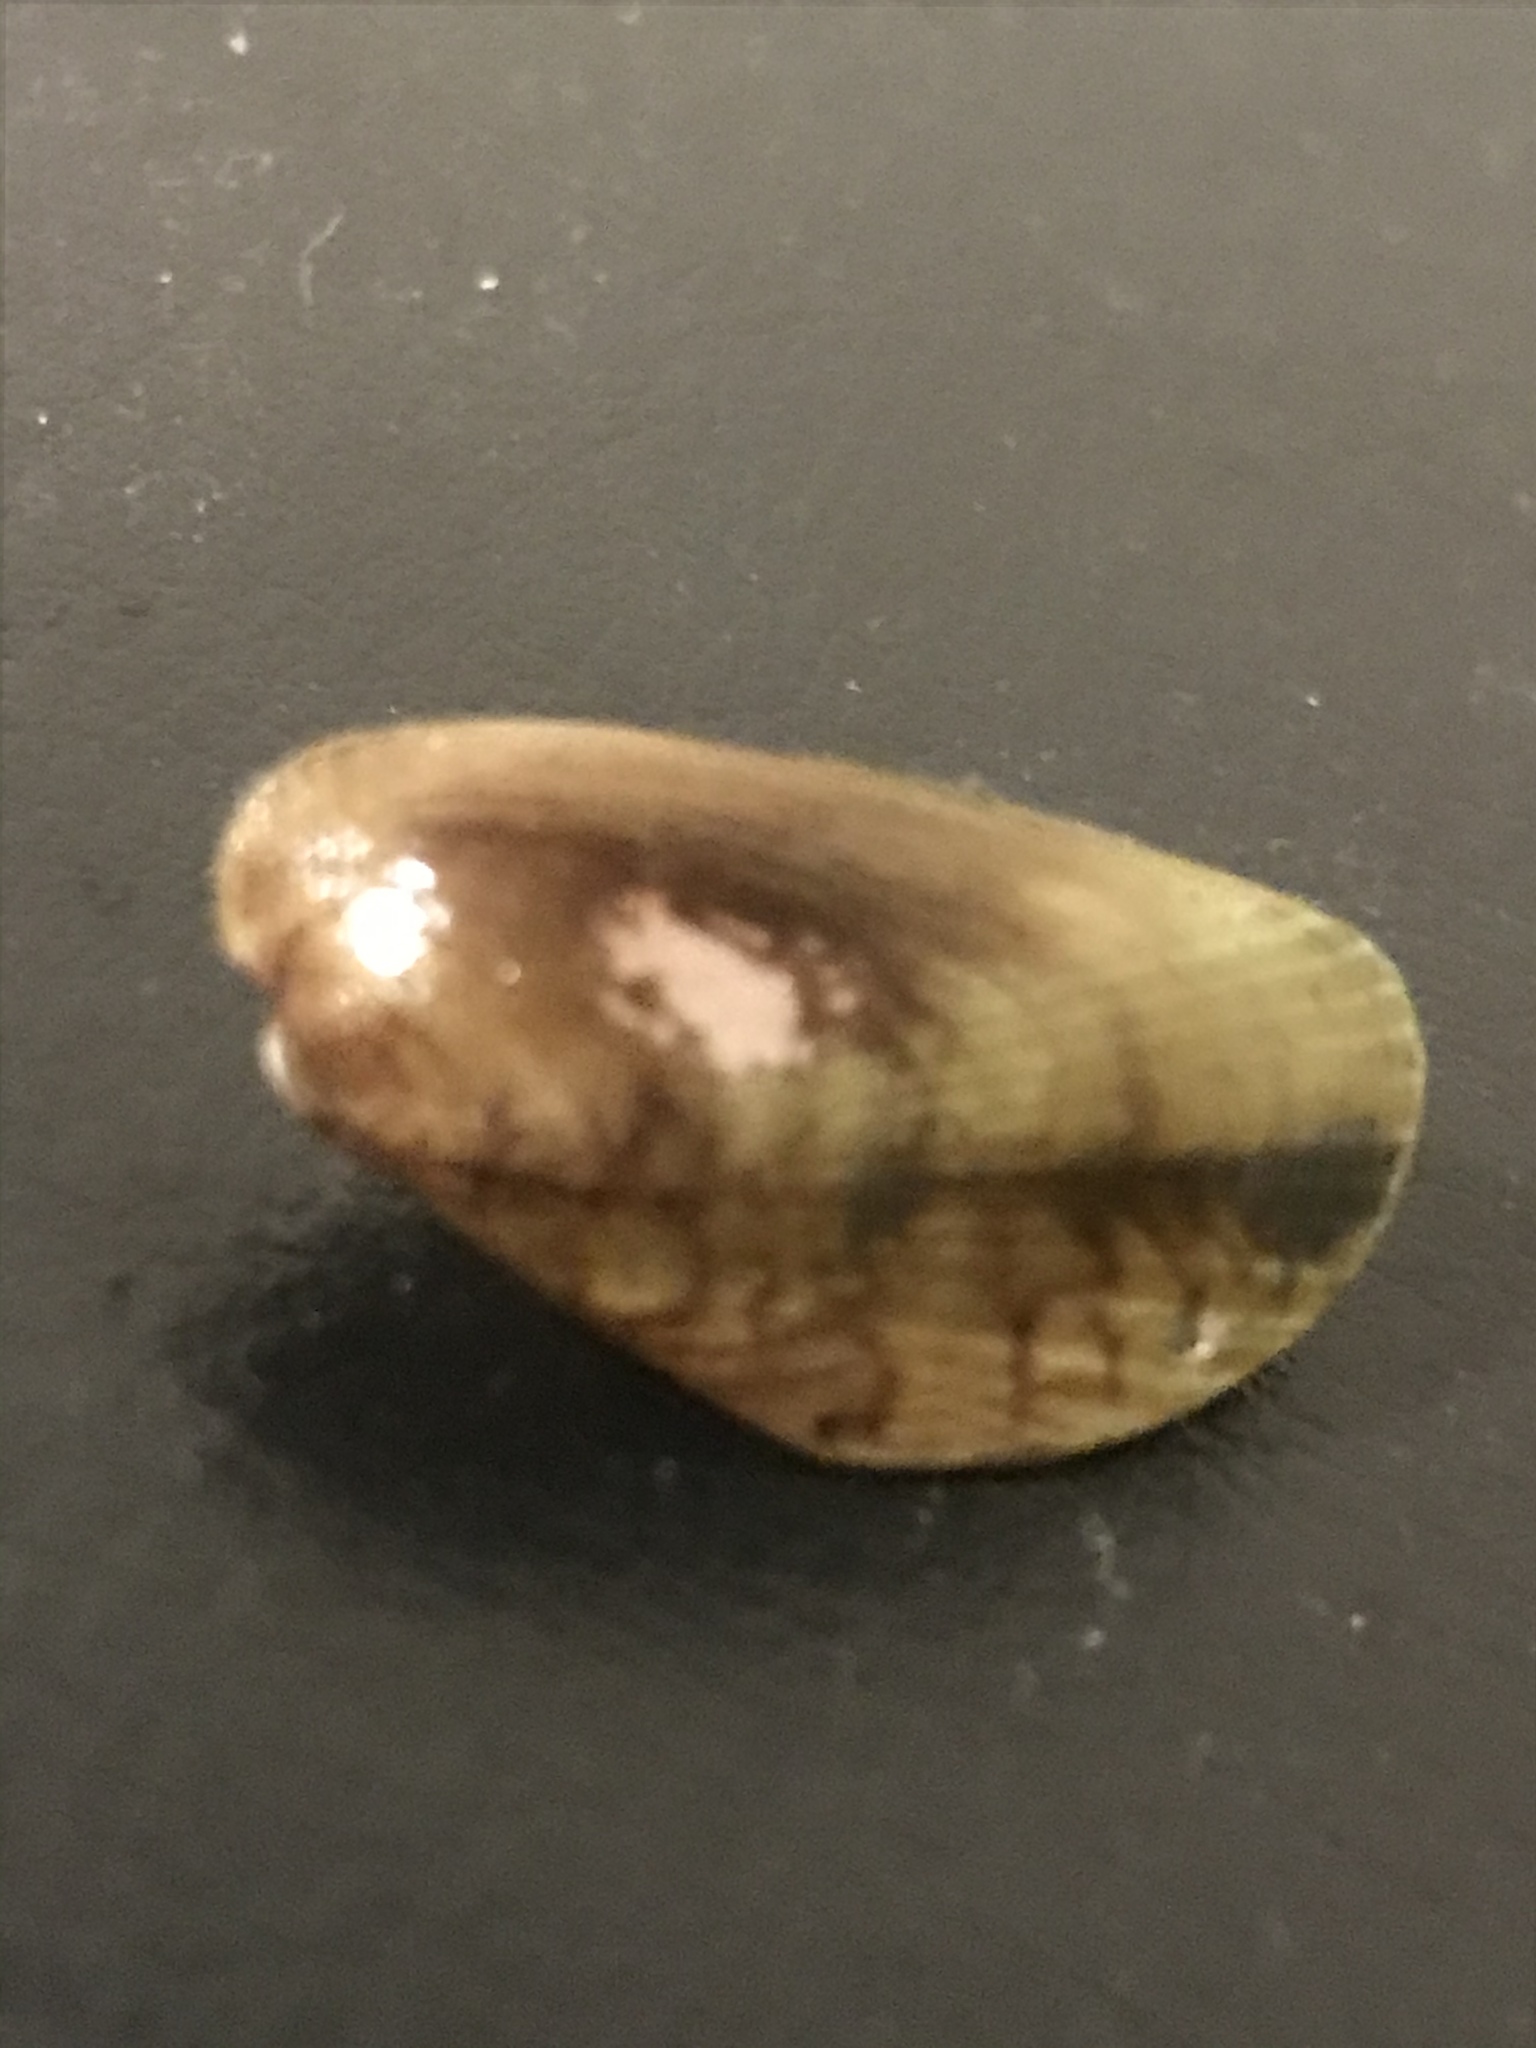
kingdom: Animalia
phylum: Mollusca
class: Bivalvia
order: Mytilida
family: Mytilidae
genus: Arcuatula
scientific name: Arcuatula senhousia
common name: Asian mussel
